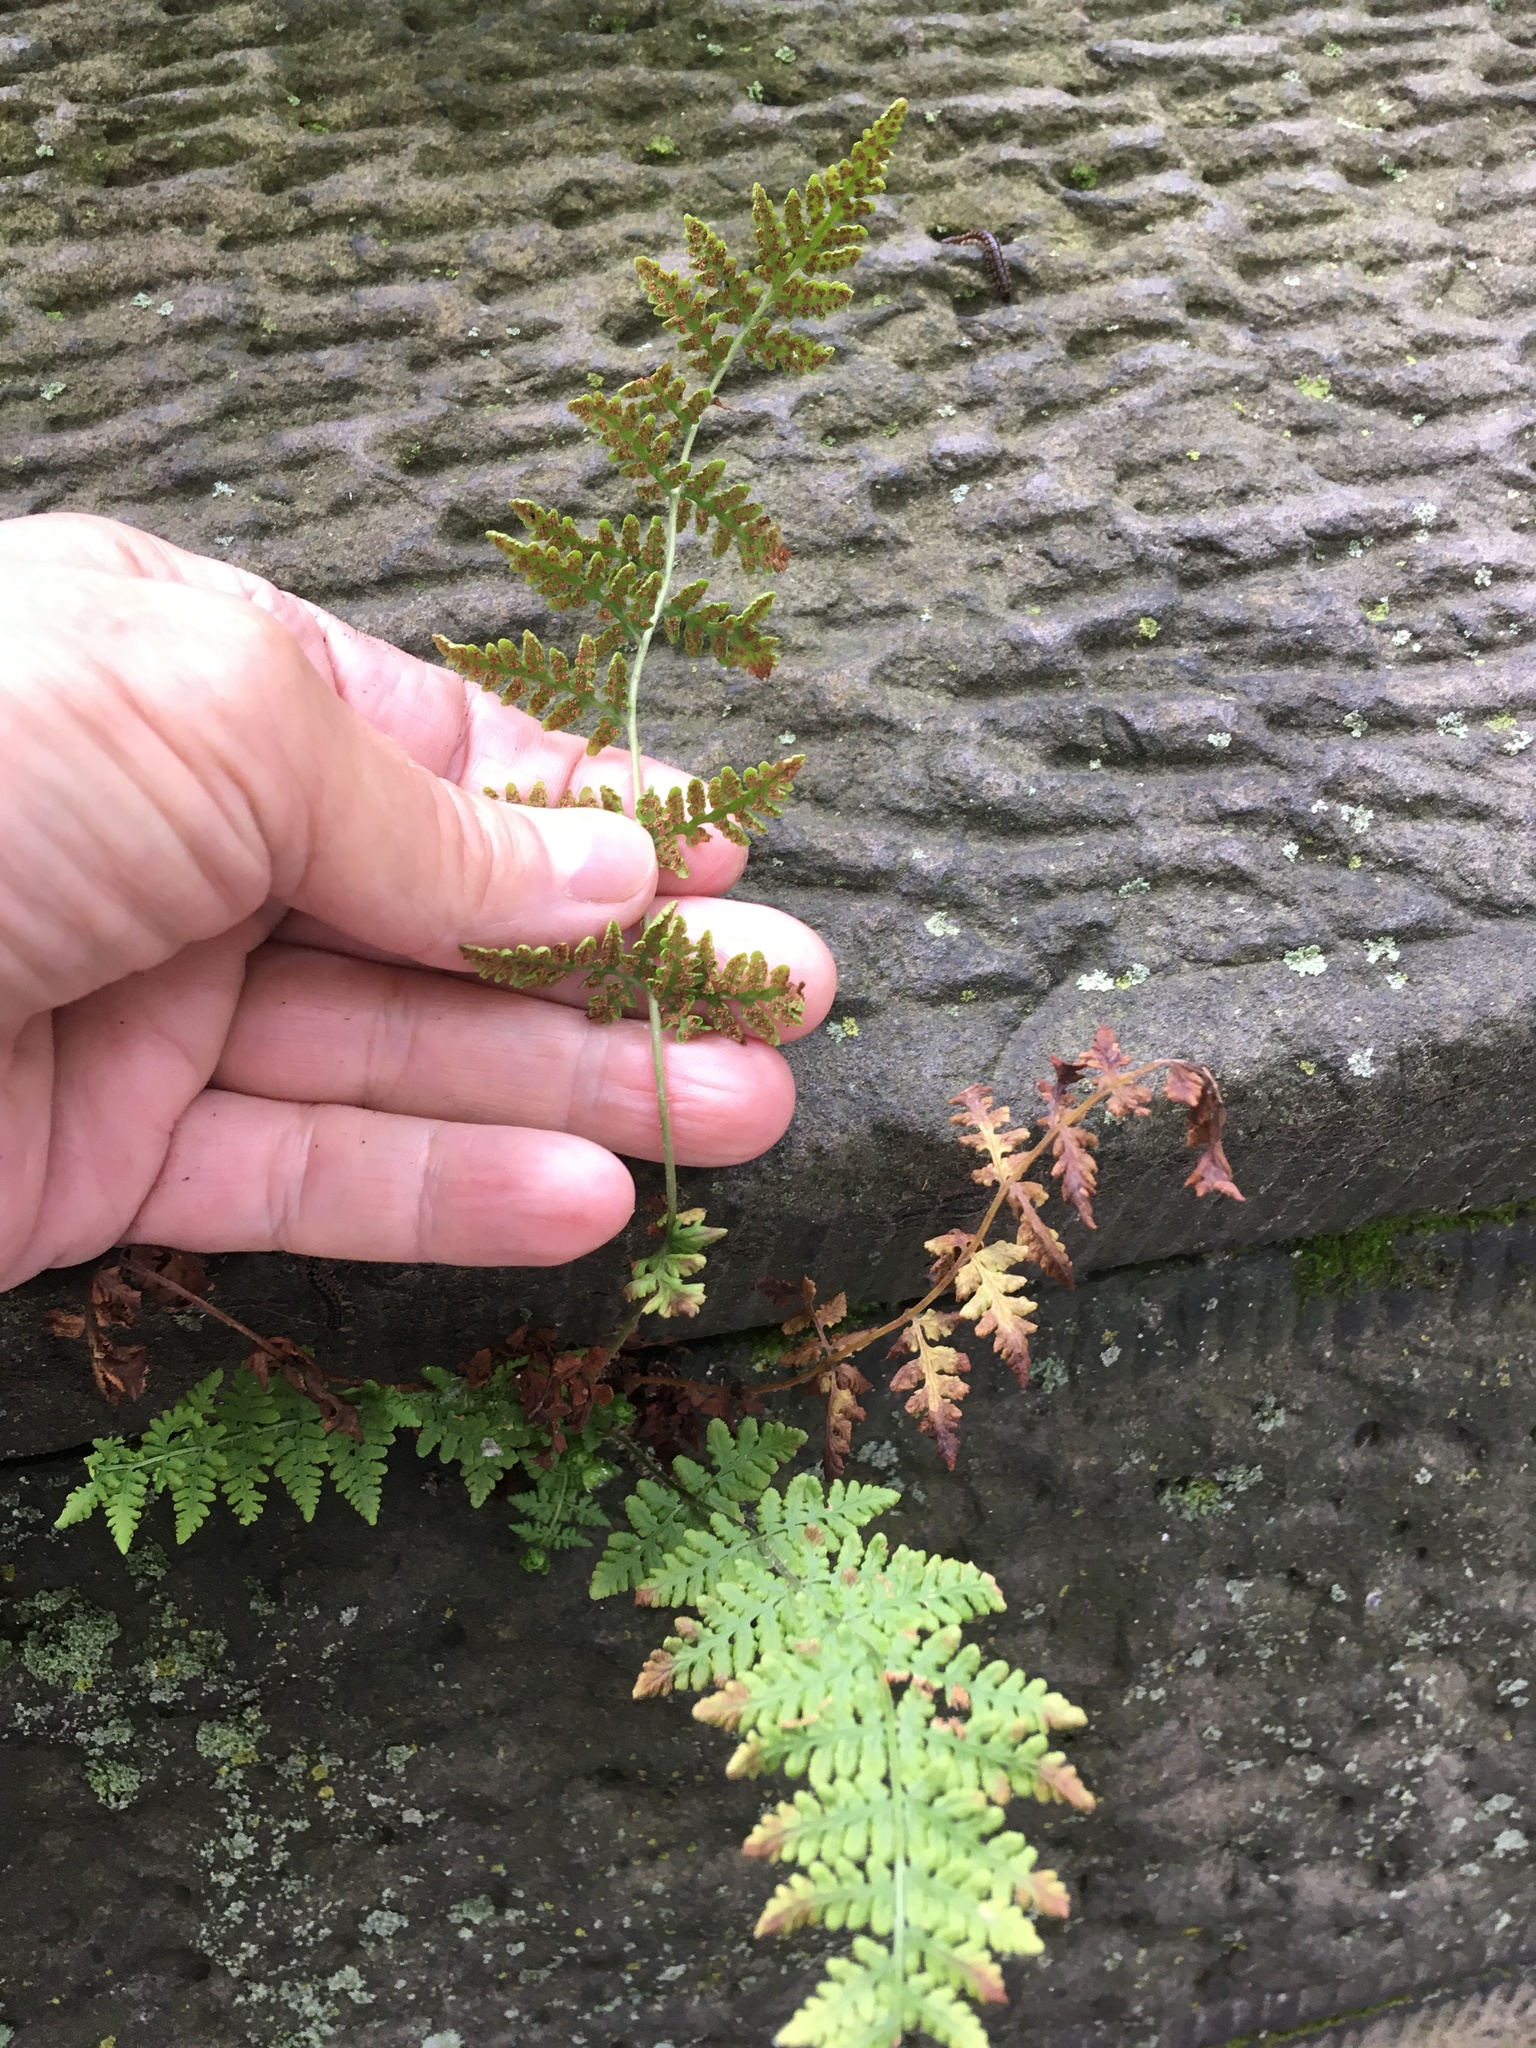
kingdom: Plantae
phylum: Tracheophyta
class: Polypodiopsida
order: Polypodiales
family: Woodsiaceae
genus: Physematium
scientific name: Physematium obtusum
